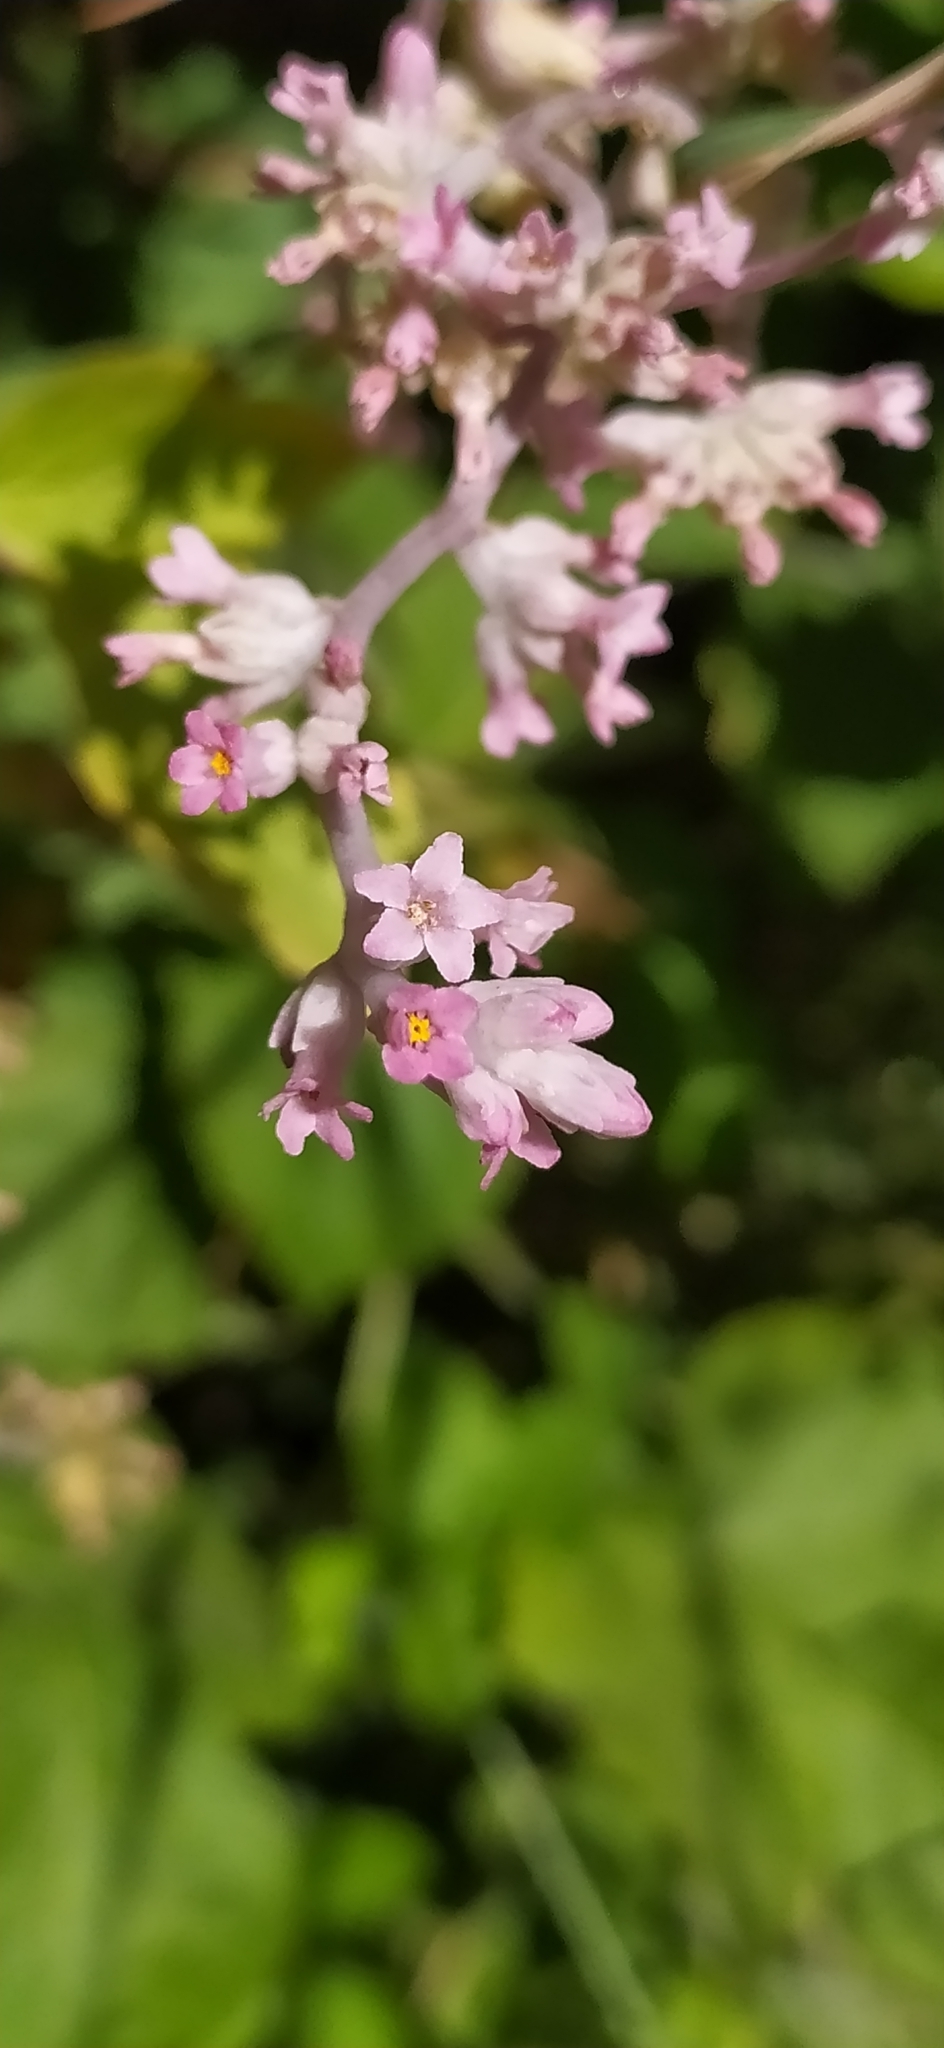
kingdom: Plantae
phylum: Tracheophyta
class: Magnoliopsida
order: Solanales
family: Convolvulaceae
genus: Cuscuta
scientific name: Cuscuta lehmanniana
